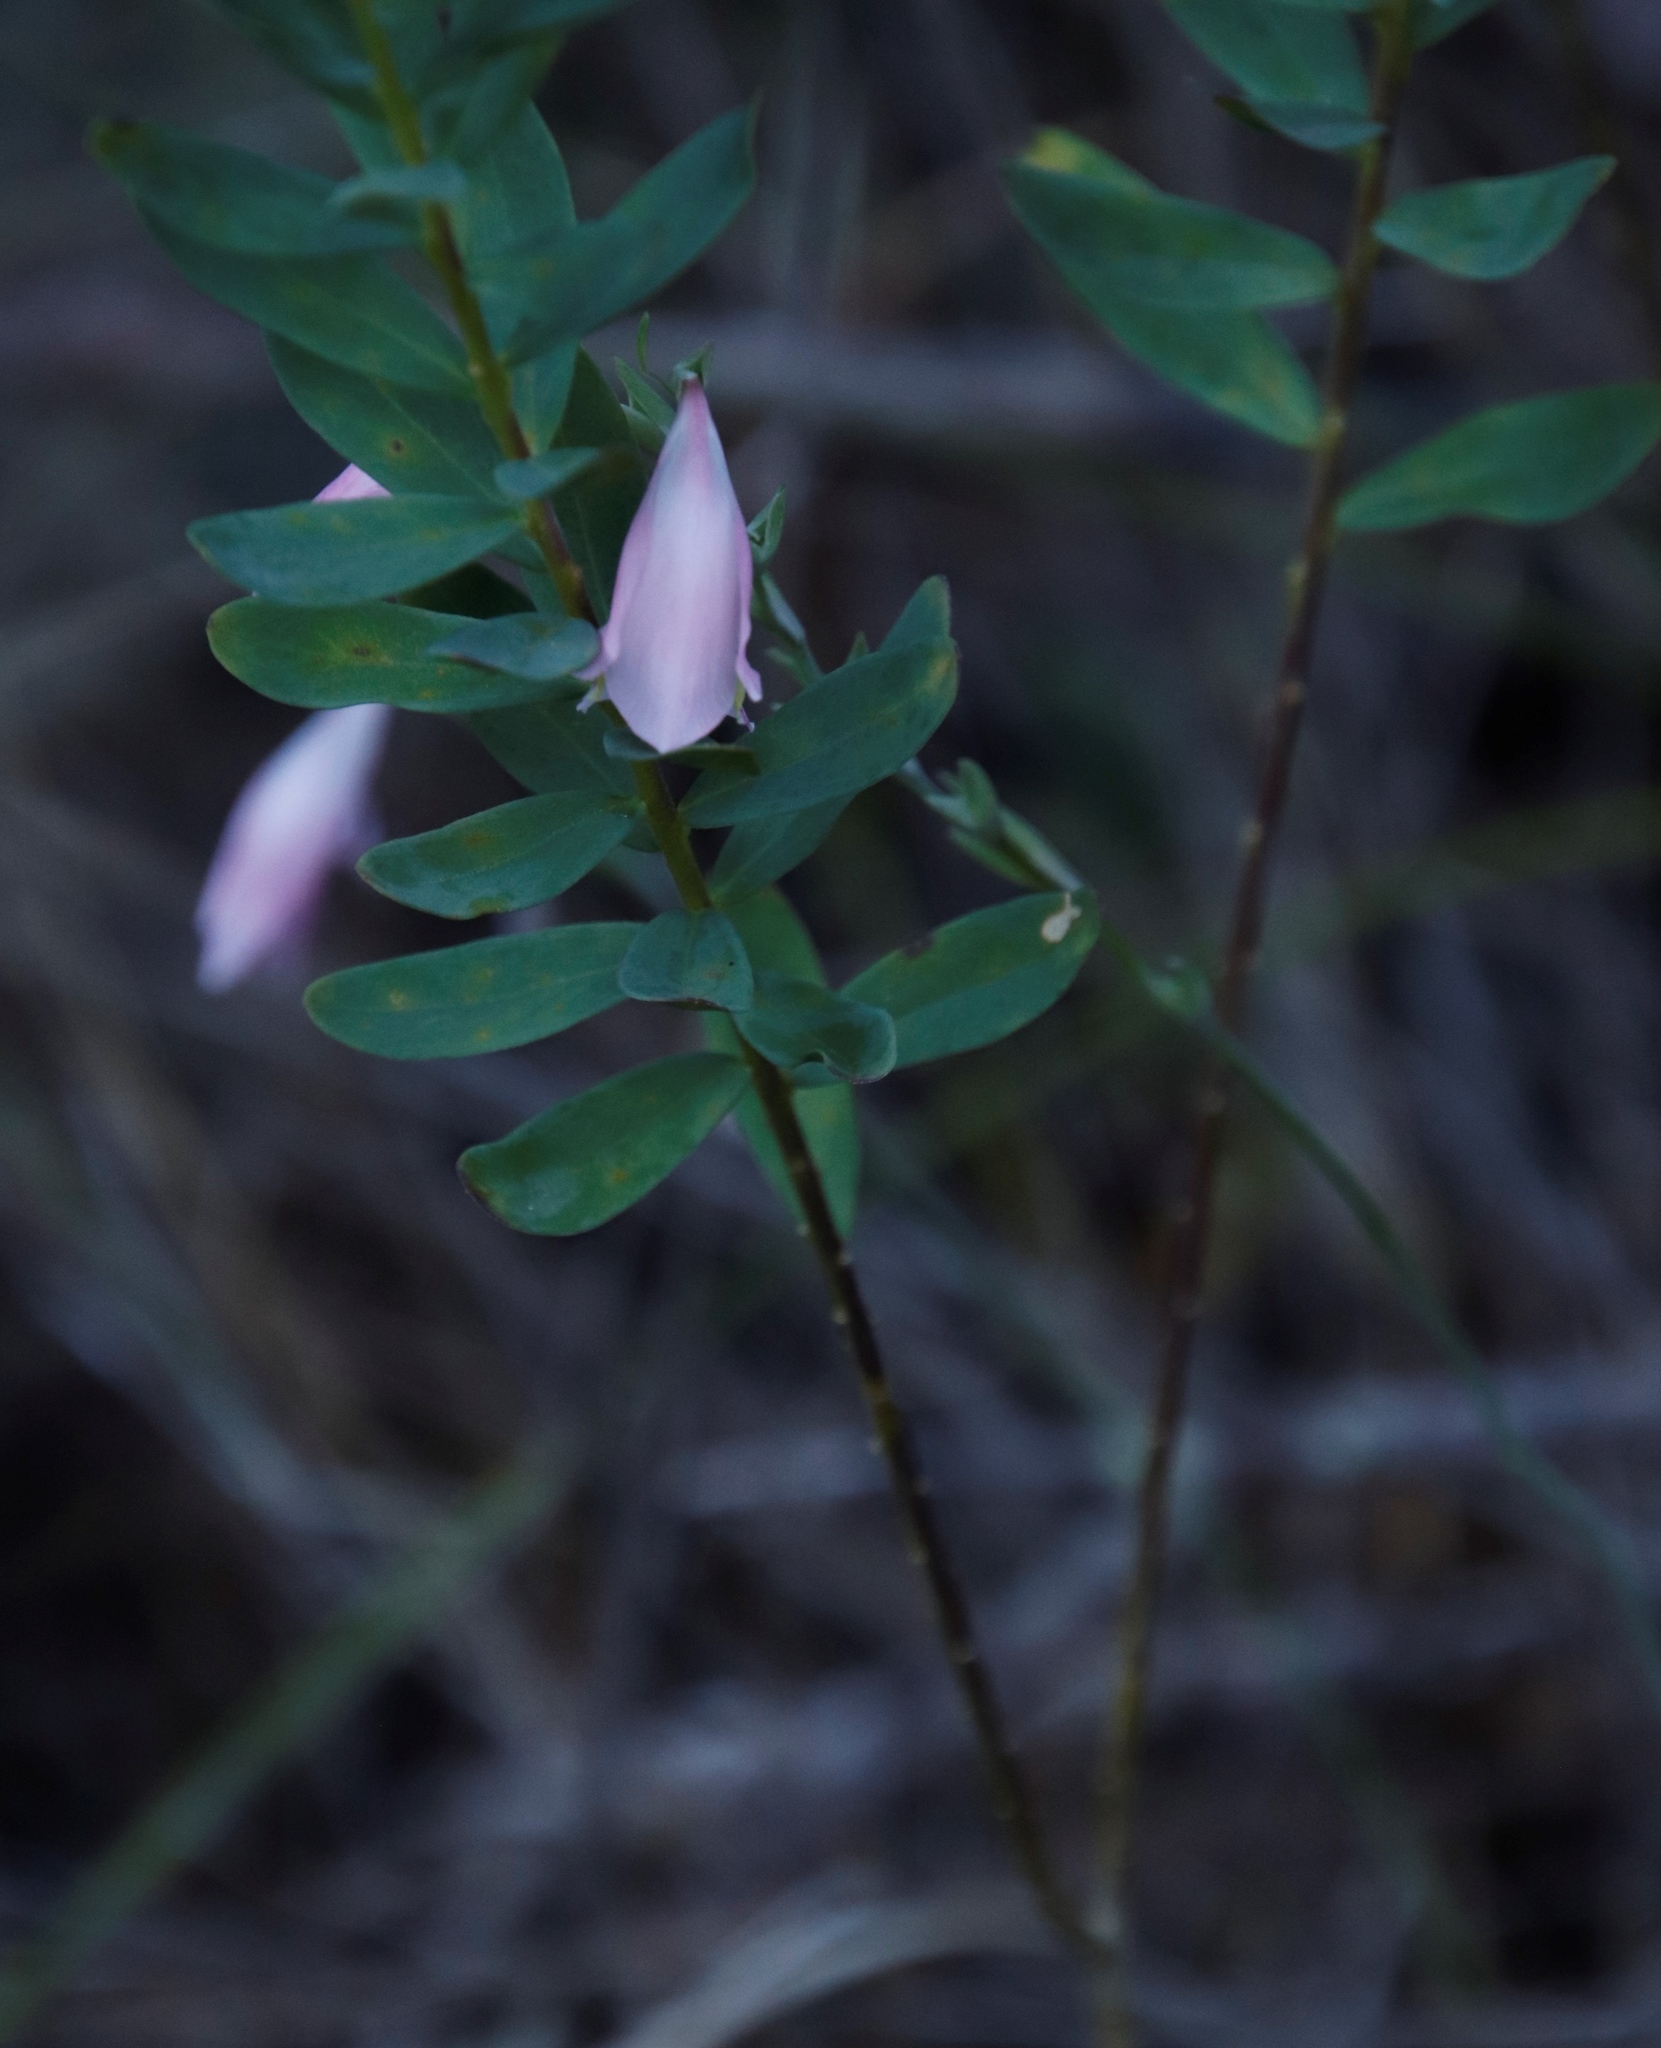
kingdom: Plantae
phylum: Tracheophyta
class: Liliopsida
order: Asparagales
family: Iridaceae
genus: Gladiolus
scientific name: Gladiolus brevifolius
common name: March pypie
